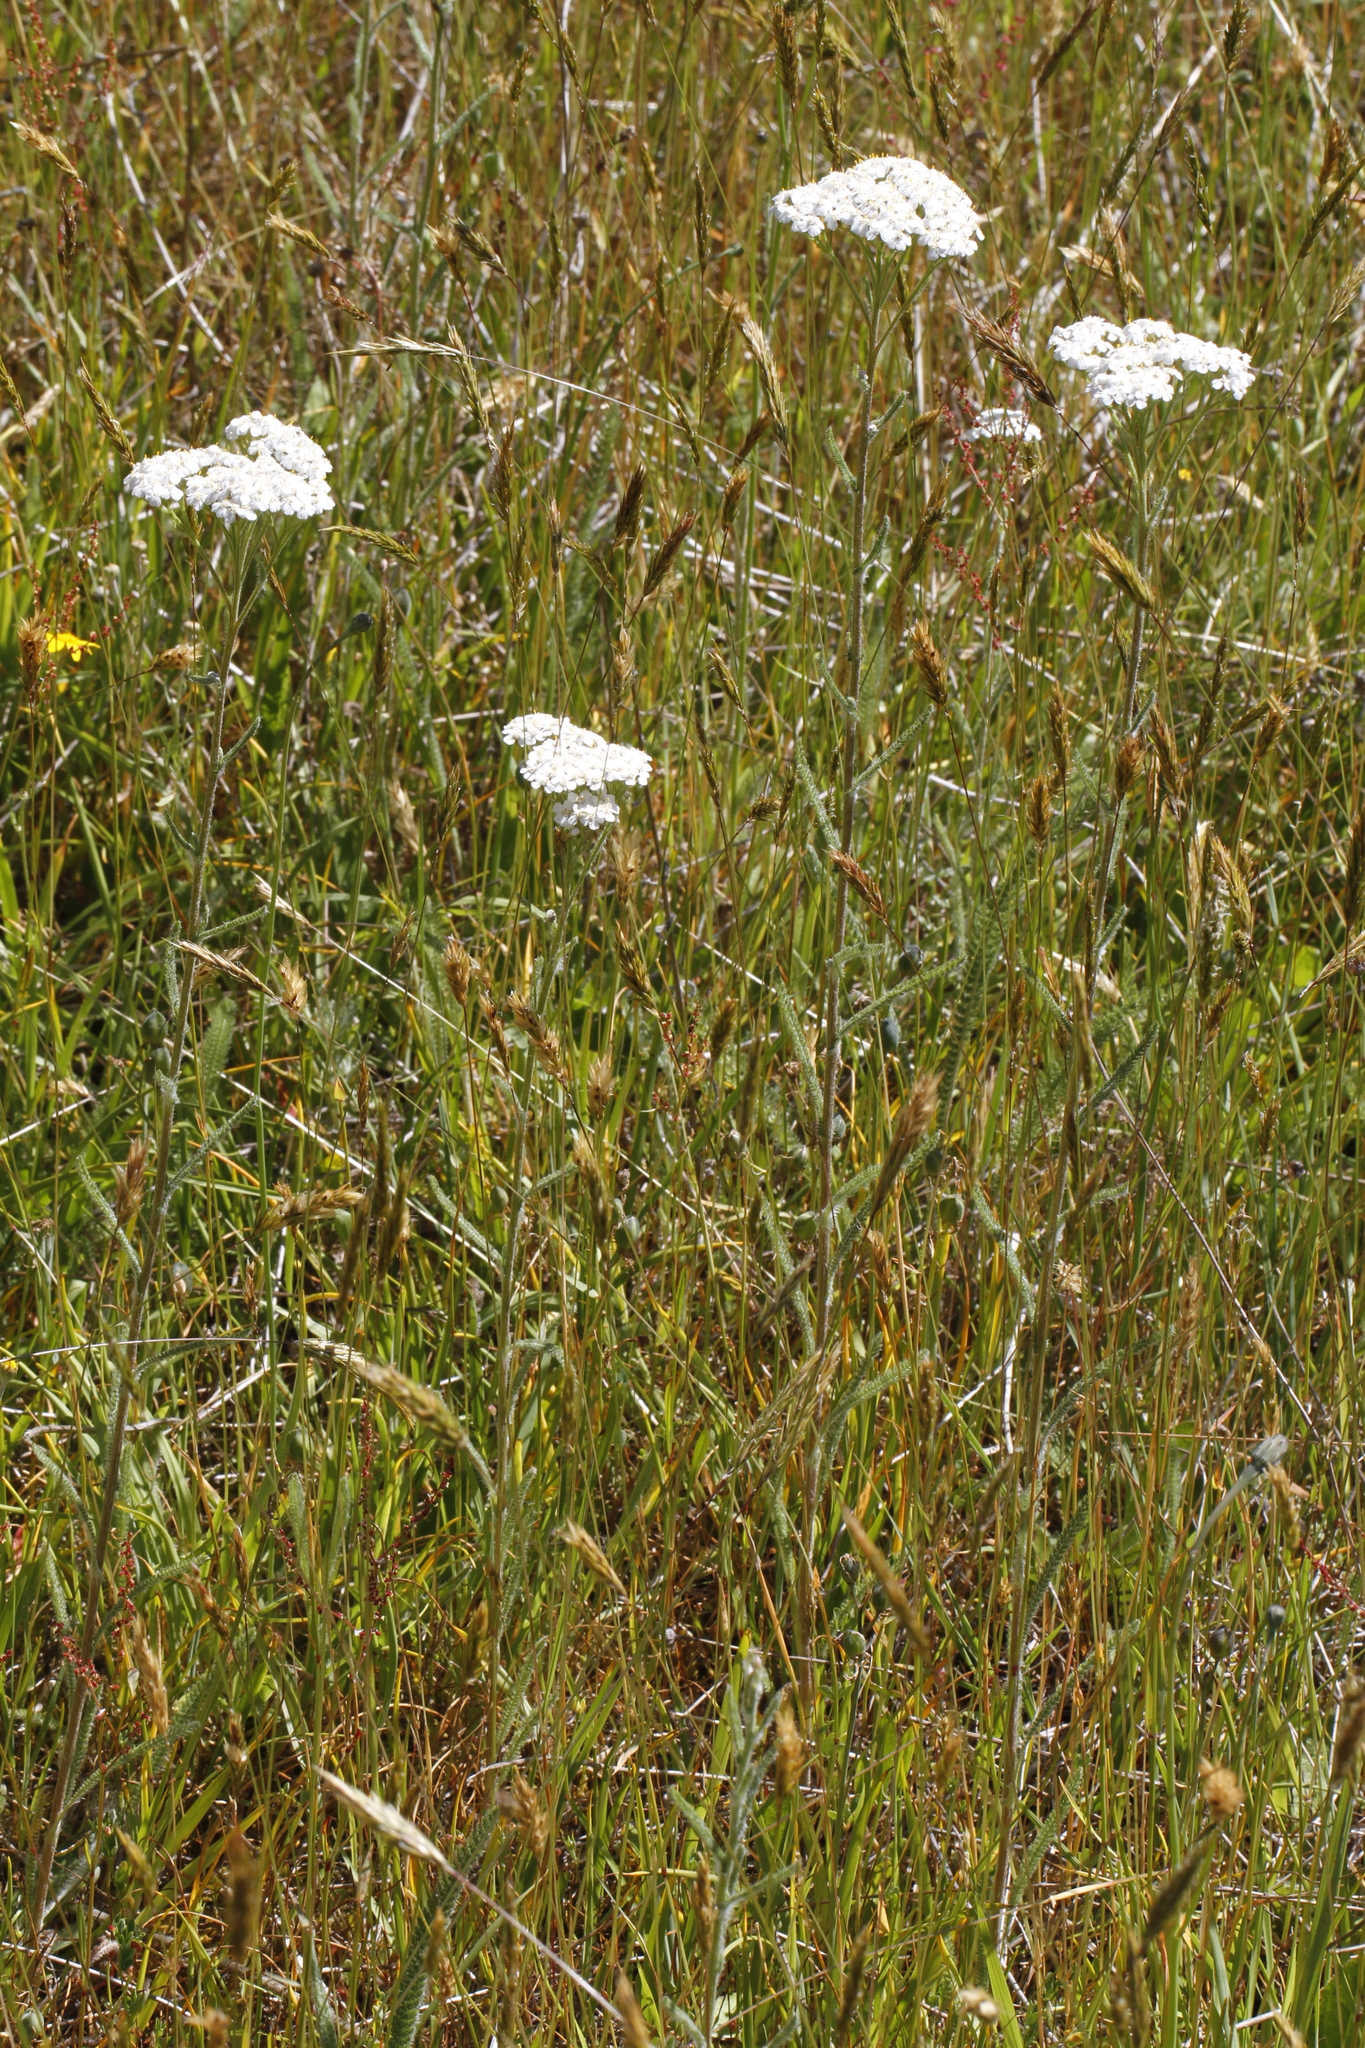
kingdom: Plantae
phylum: Tracheophyta
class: Magnoliopsida
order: Asterales
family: Asteraceae
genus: Achillea
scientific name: Achillea millefolium
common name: Yarrow
